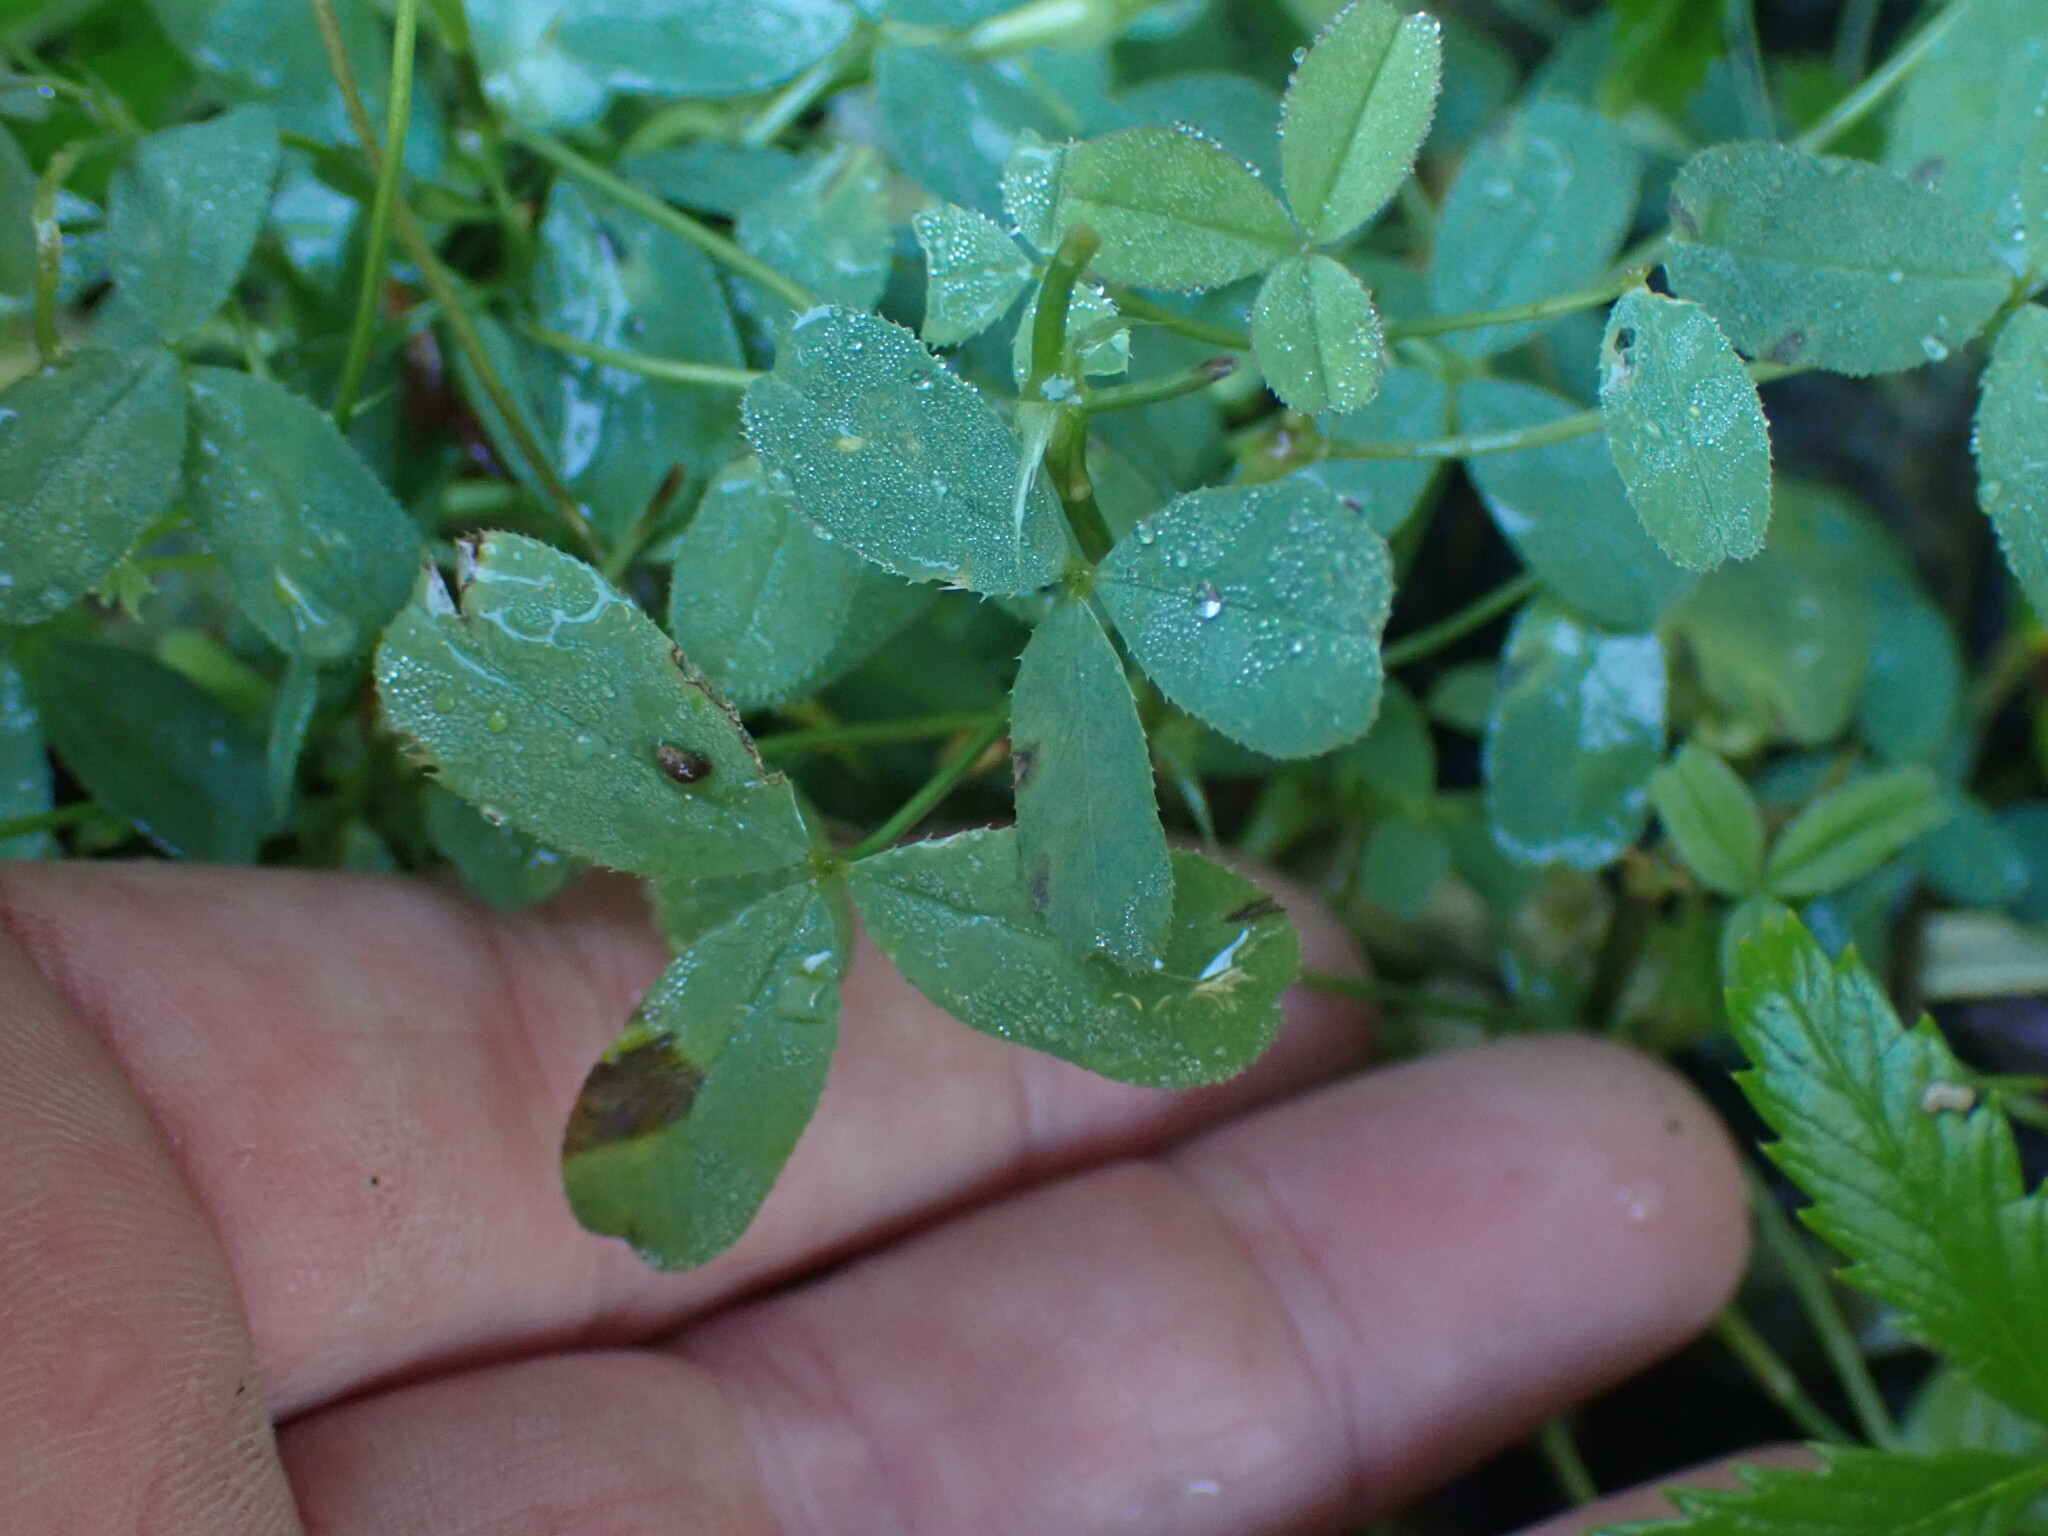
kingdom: Plantae
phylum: Tracheophyta
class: Magnoliopsida
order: Fabales
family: Fabaceae
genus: Trifolium
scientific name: Trifolium wormskioldii
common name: Springbank clover
